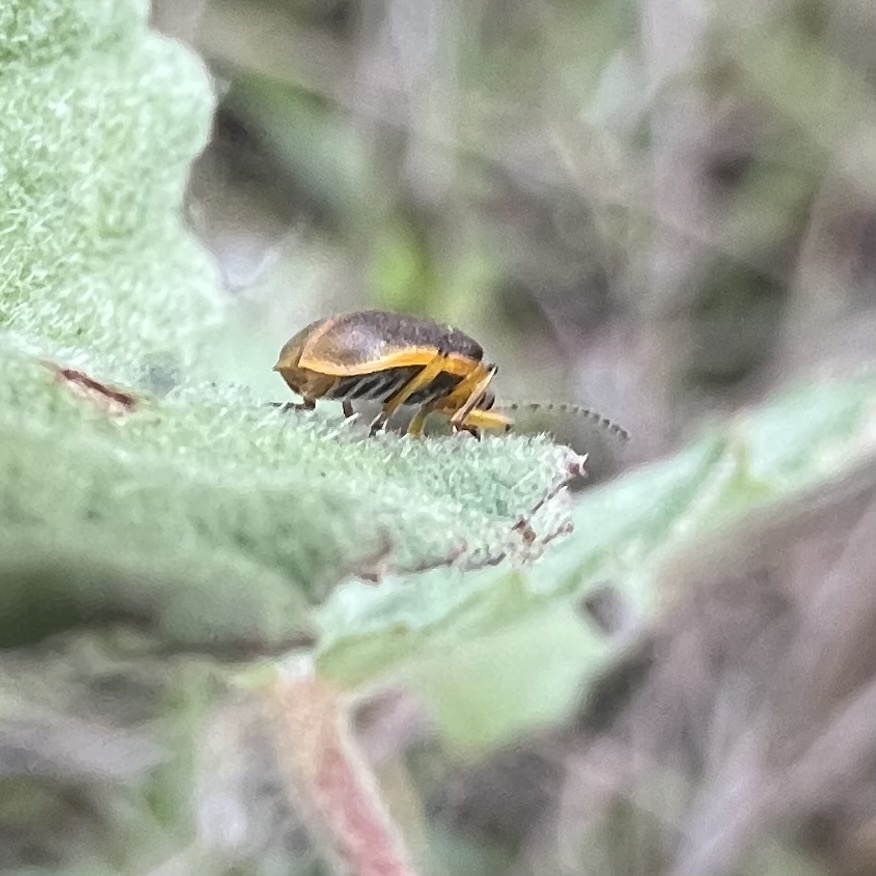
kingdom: Animalia
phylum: Arthropoda
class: Insecta
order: Coleoptera
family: Chrysomelidae
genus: Galerucella
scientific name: Galerucella nymphaeae
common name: Leaf beetle
